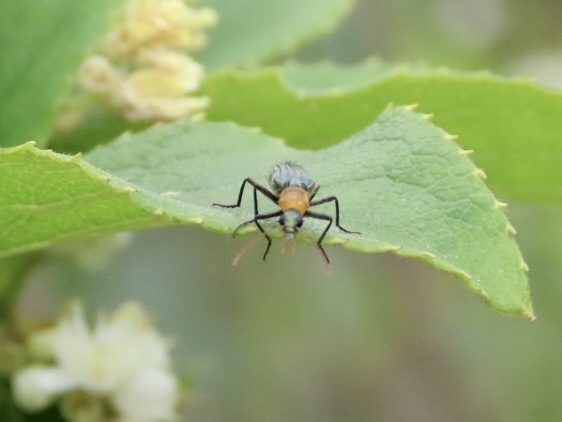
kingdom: Animalia
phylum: Arthropoda
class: Insecta
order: Coleoptera
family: Prionoceridae
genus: Idgia
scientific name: Idgia flavicollis
